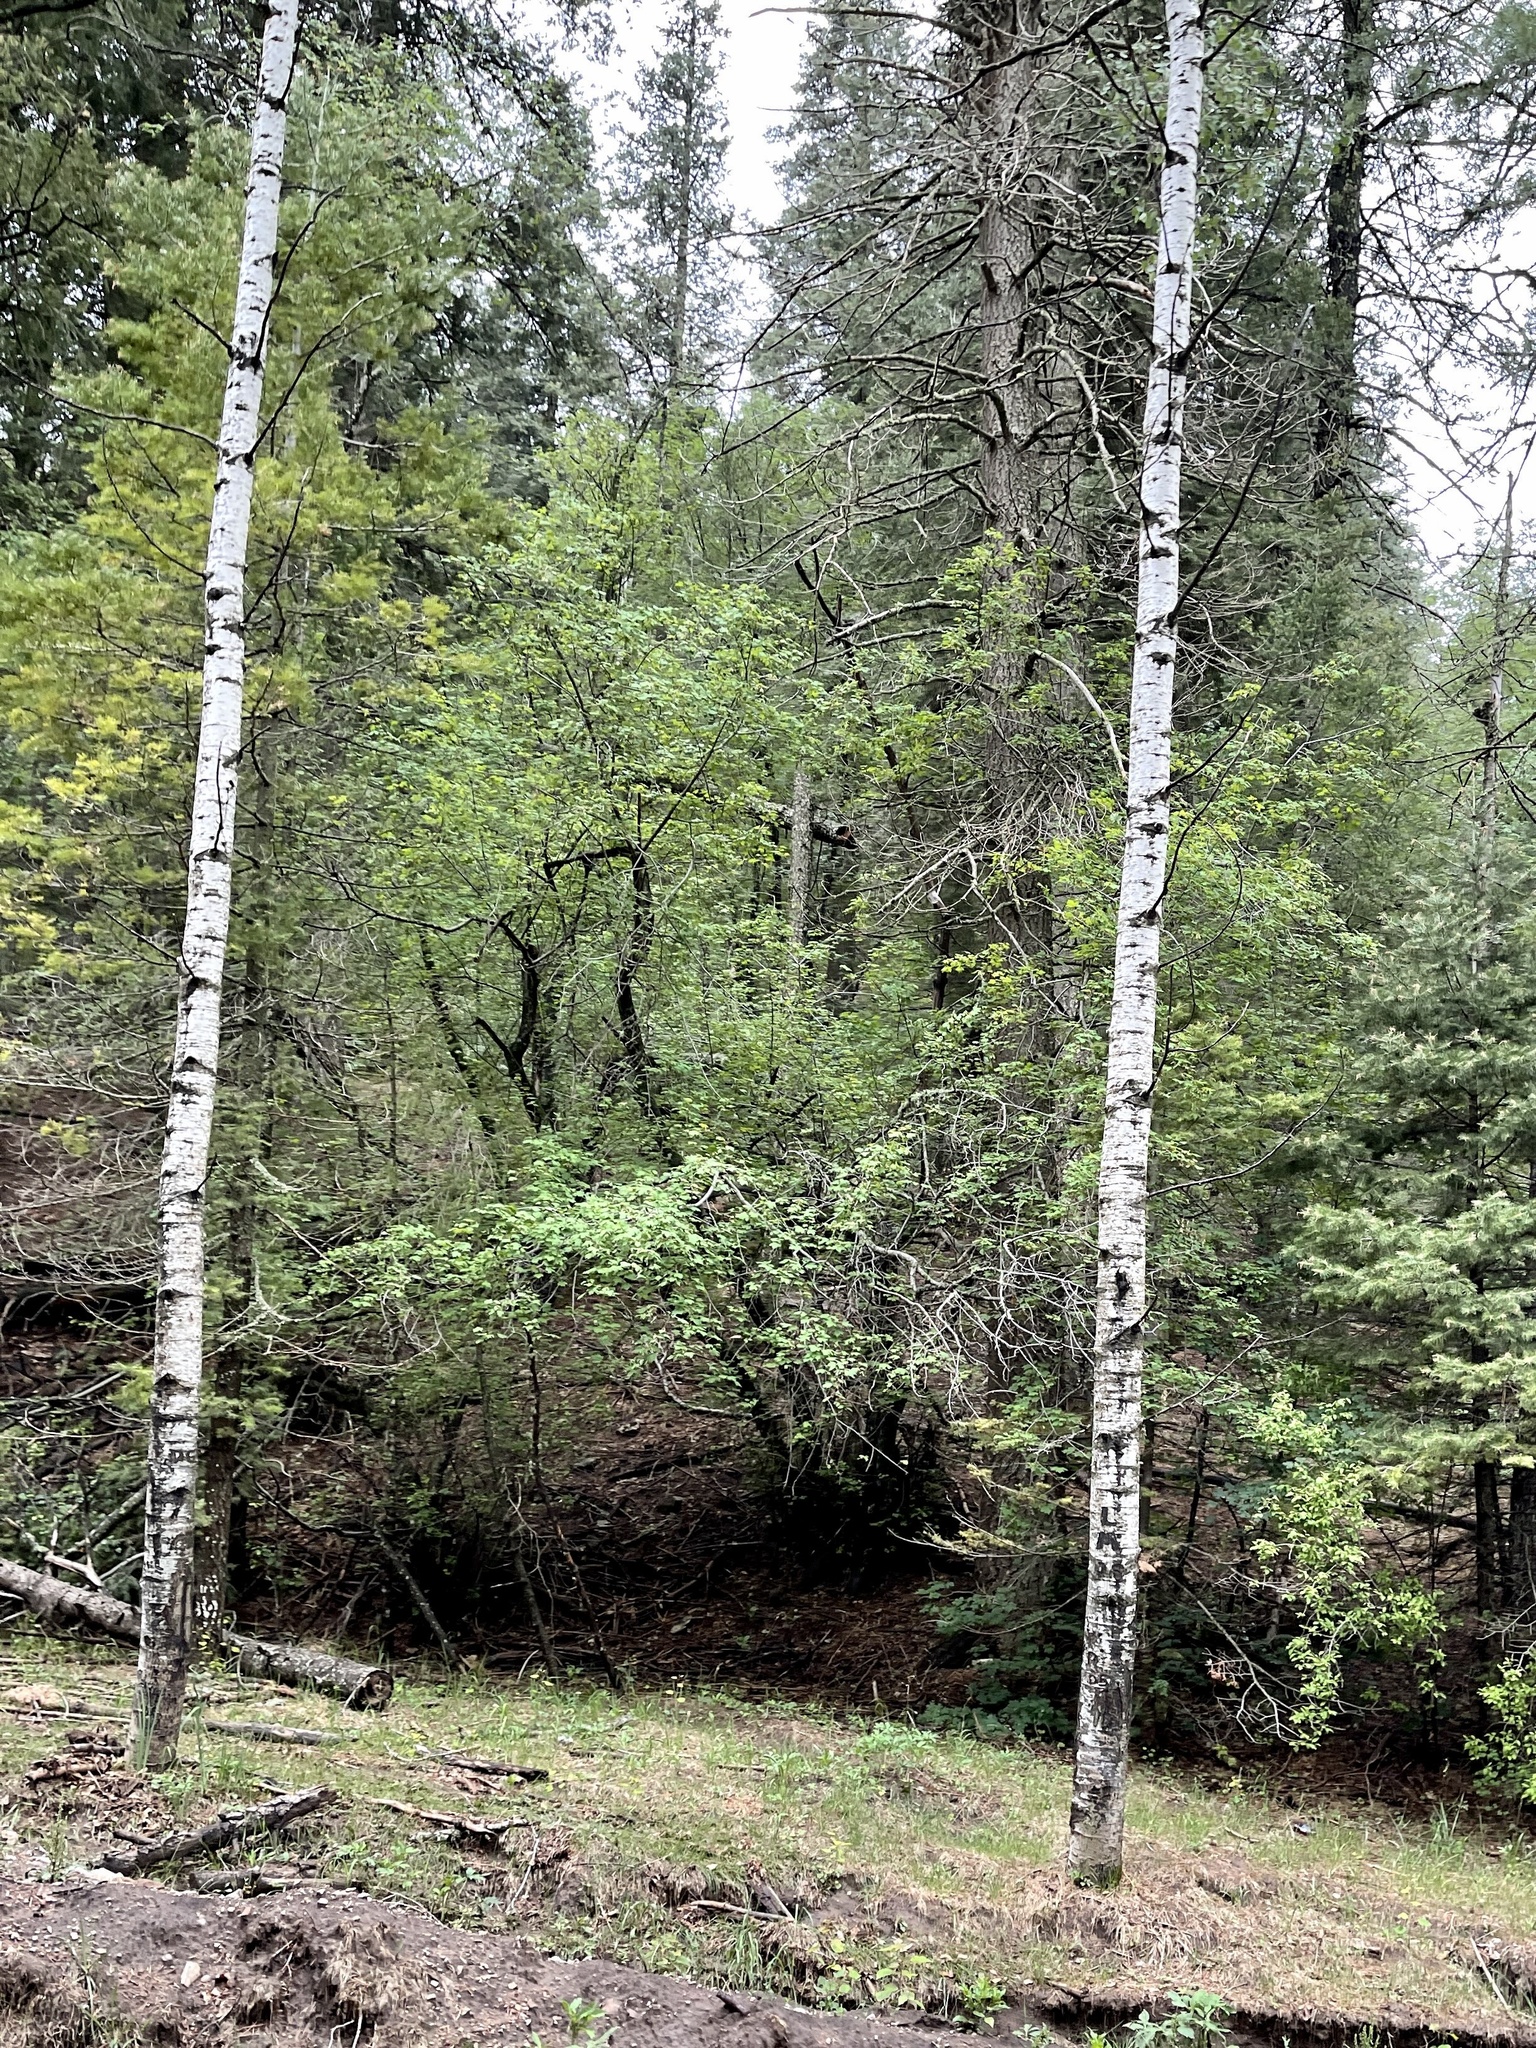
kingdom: Plantae
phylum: Tracheophyta
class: Magnoliopsida
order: Malpighiales
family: Salicaceae
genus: Populus
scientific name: Populus tremuloides
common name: Quaking aspen
